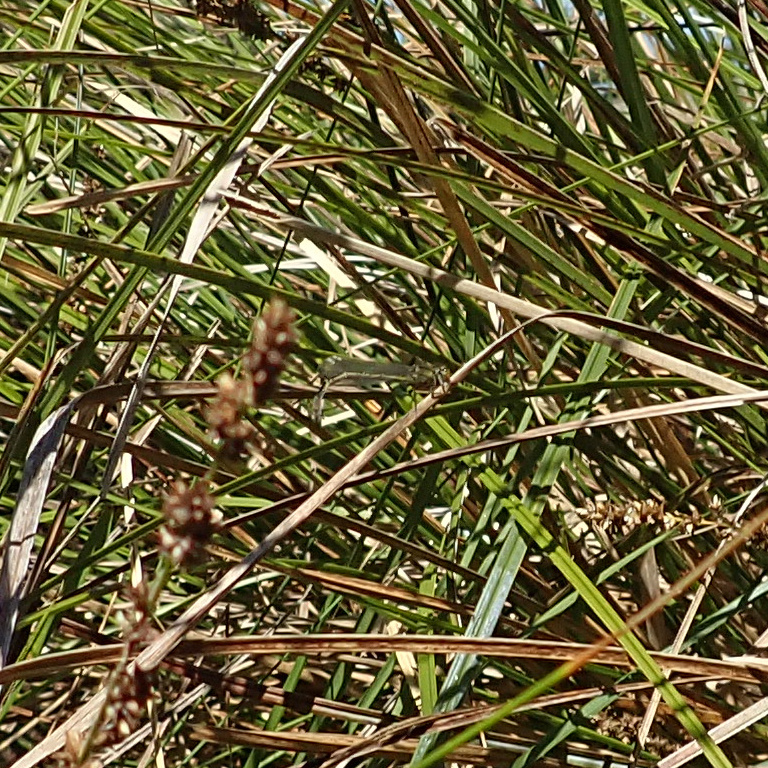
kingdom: Animalia
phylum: Arthropoda
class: Insecta
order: Odonata
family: Coenagrionidae
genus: Ischnura
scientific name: Ischnura heterosticta
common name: Common bluetail
